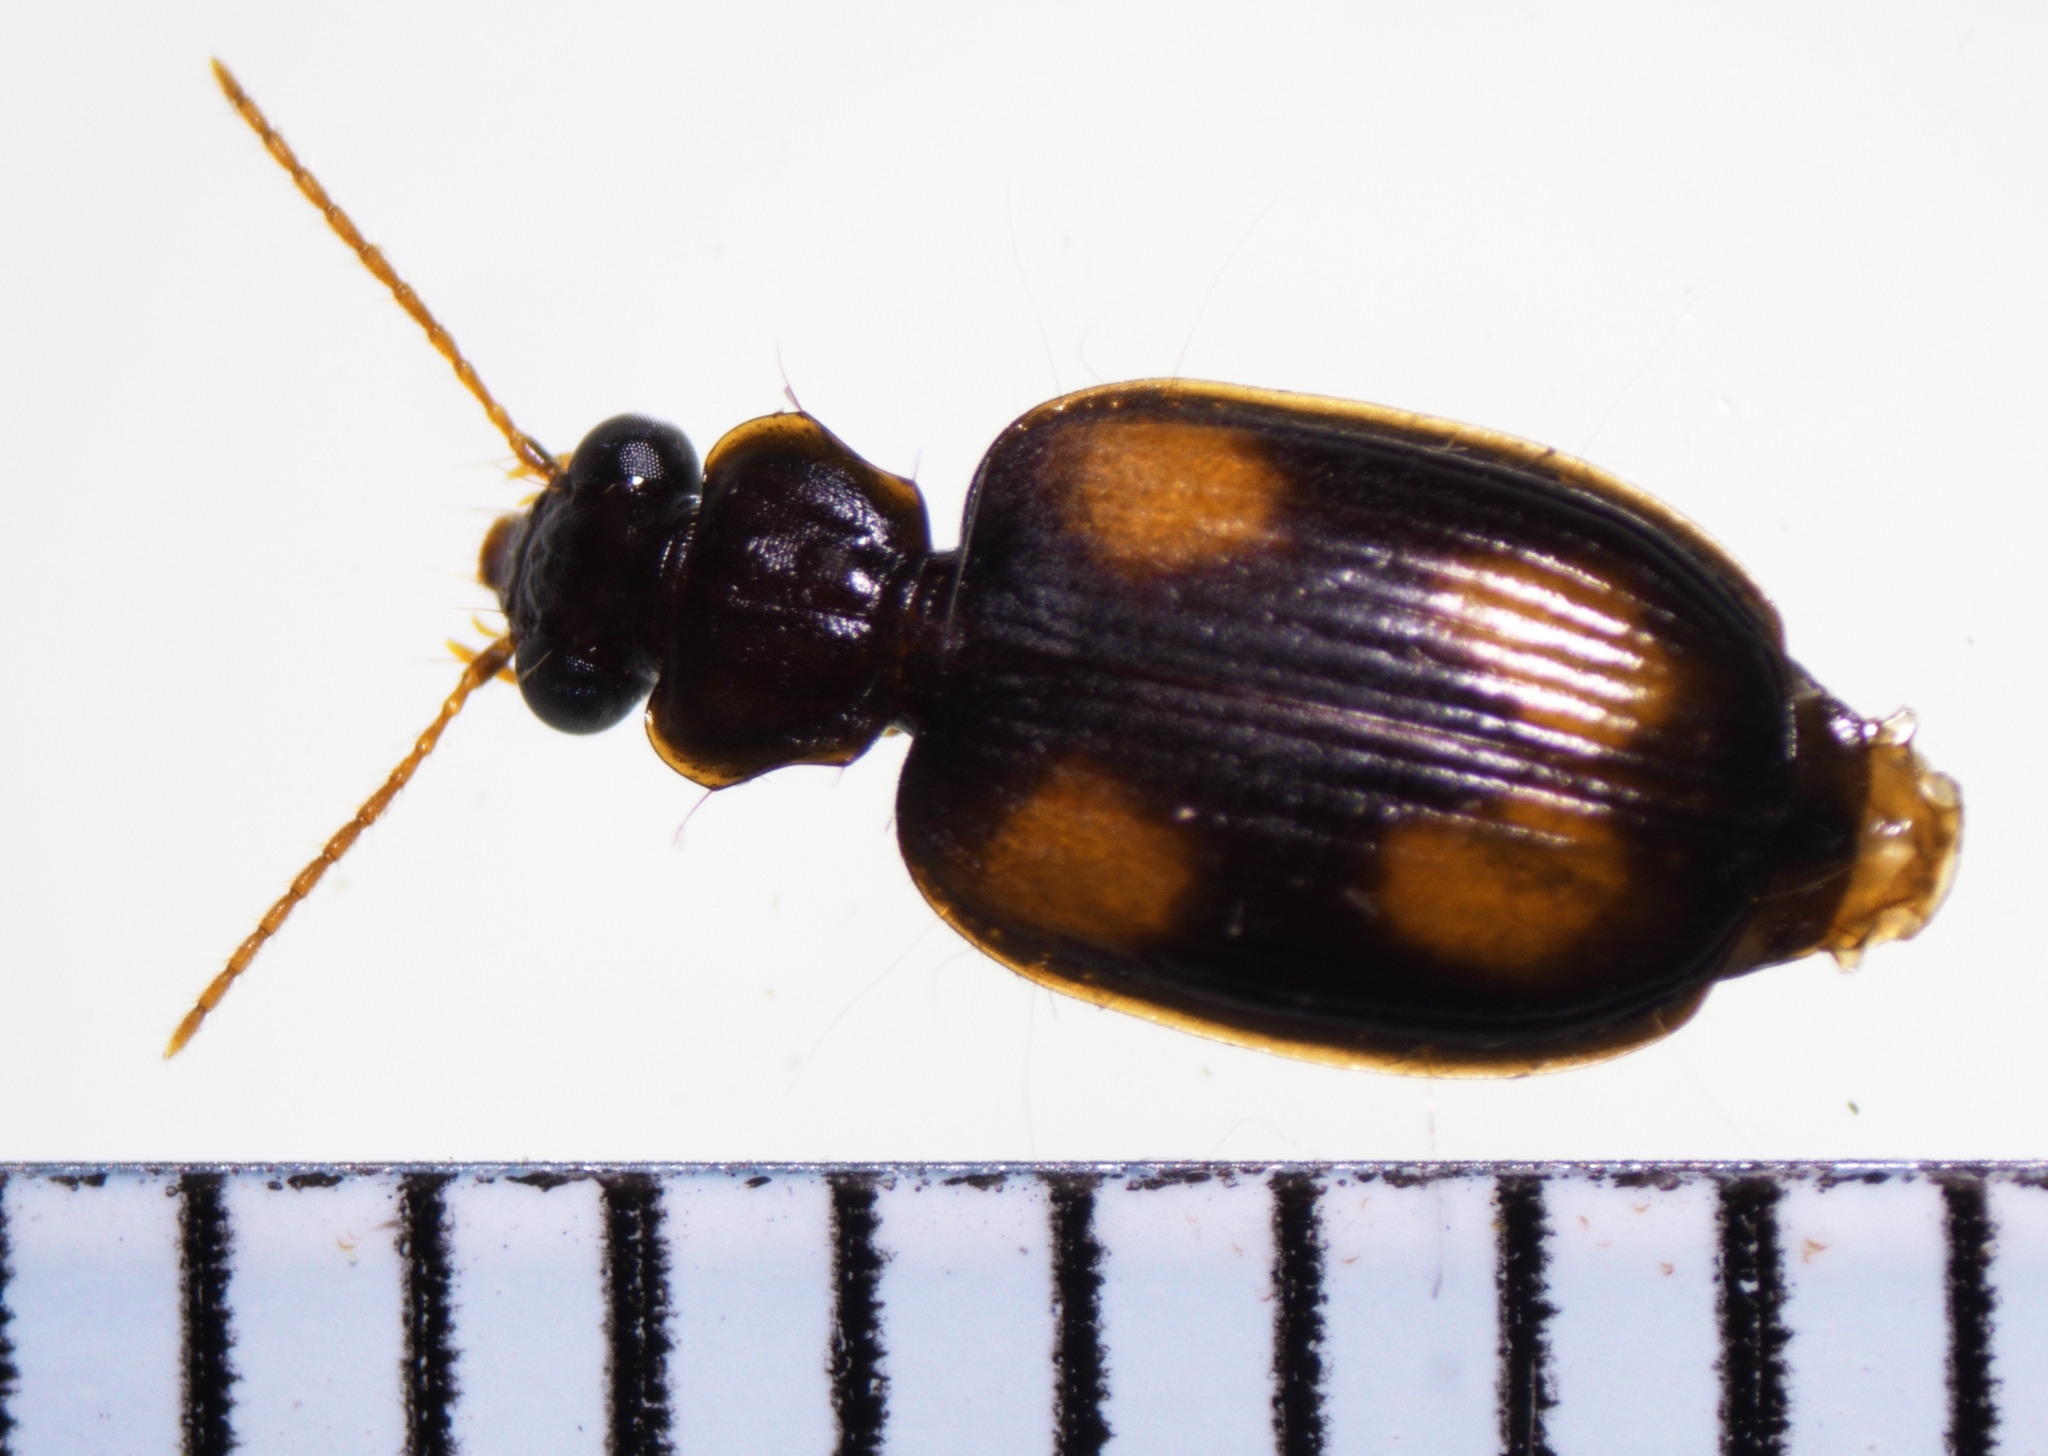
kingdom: Animalia
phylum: Arthropoda
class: Insecta
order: Coleoptera
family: Carabidae
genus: Mochtherus
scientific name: Mochtherus tetraspilotus
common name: Asian ground beetle
